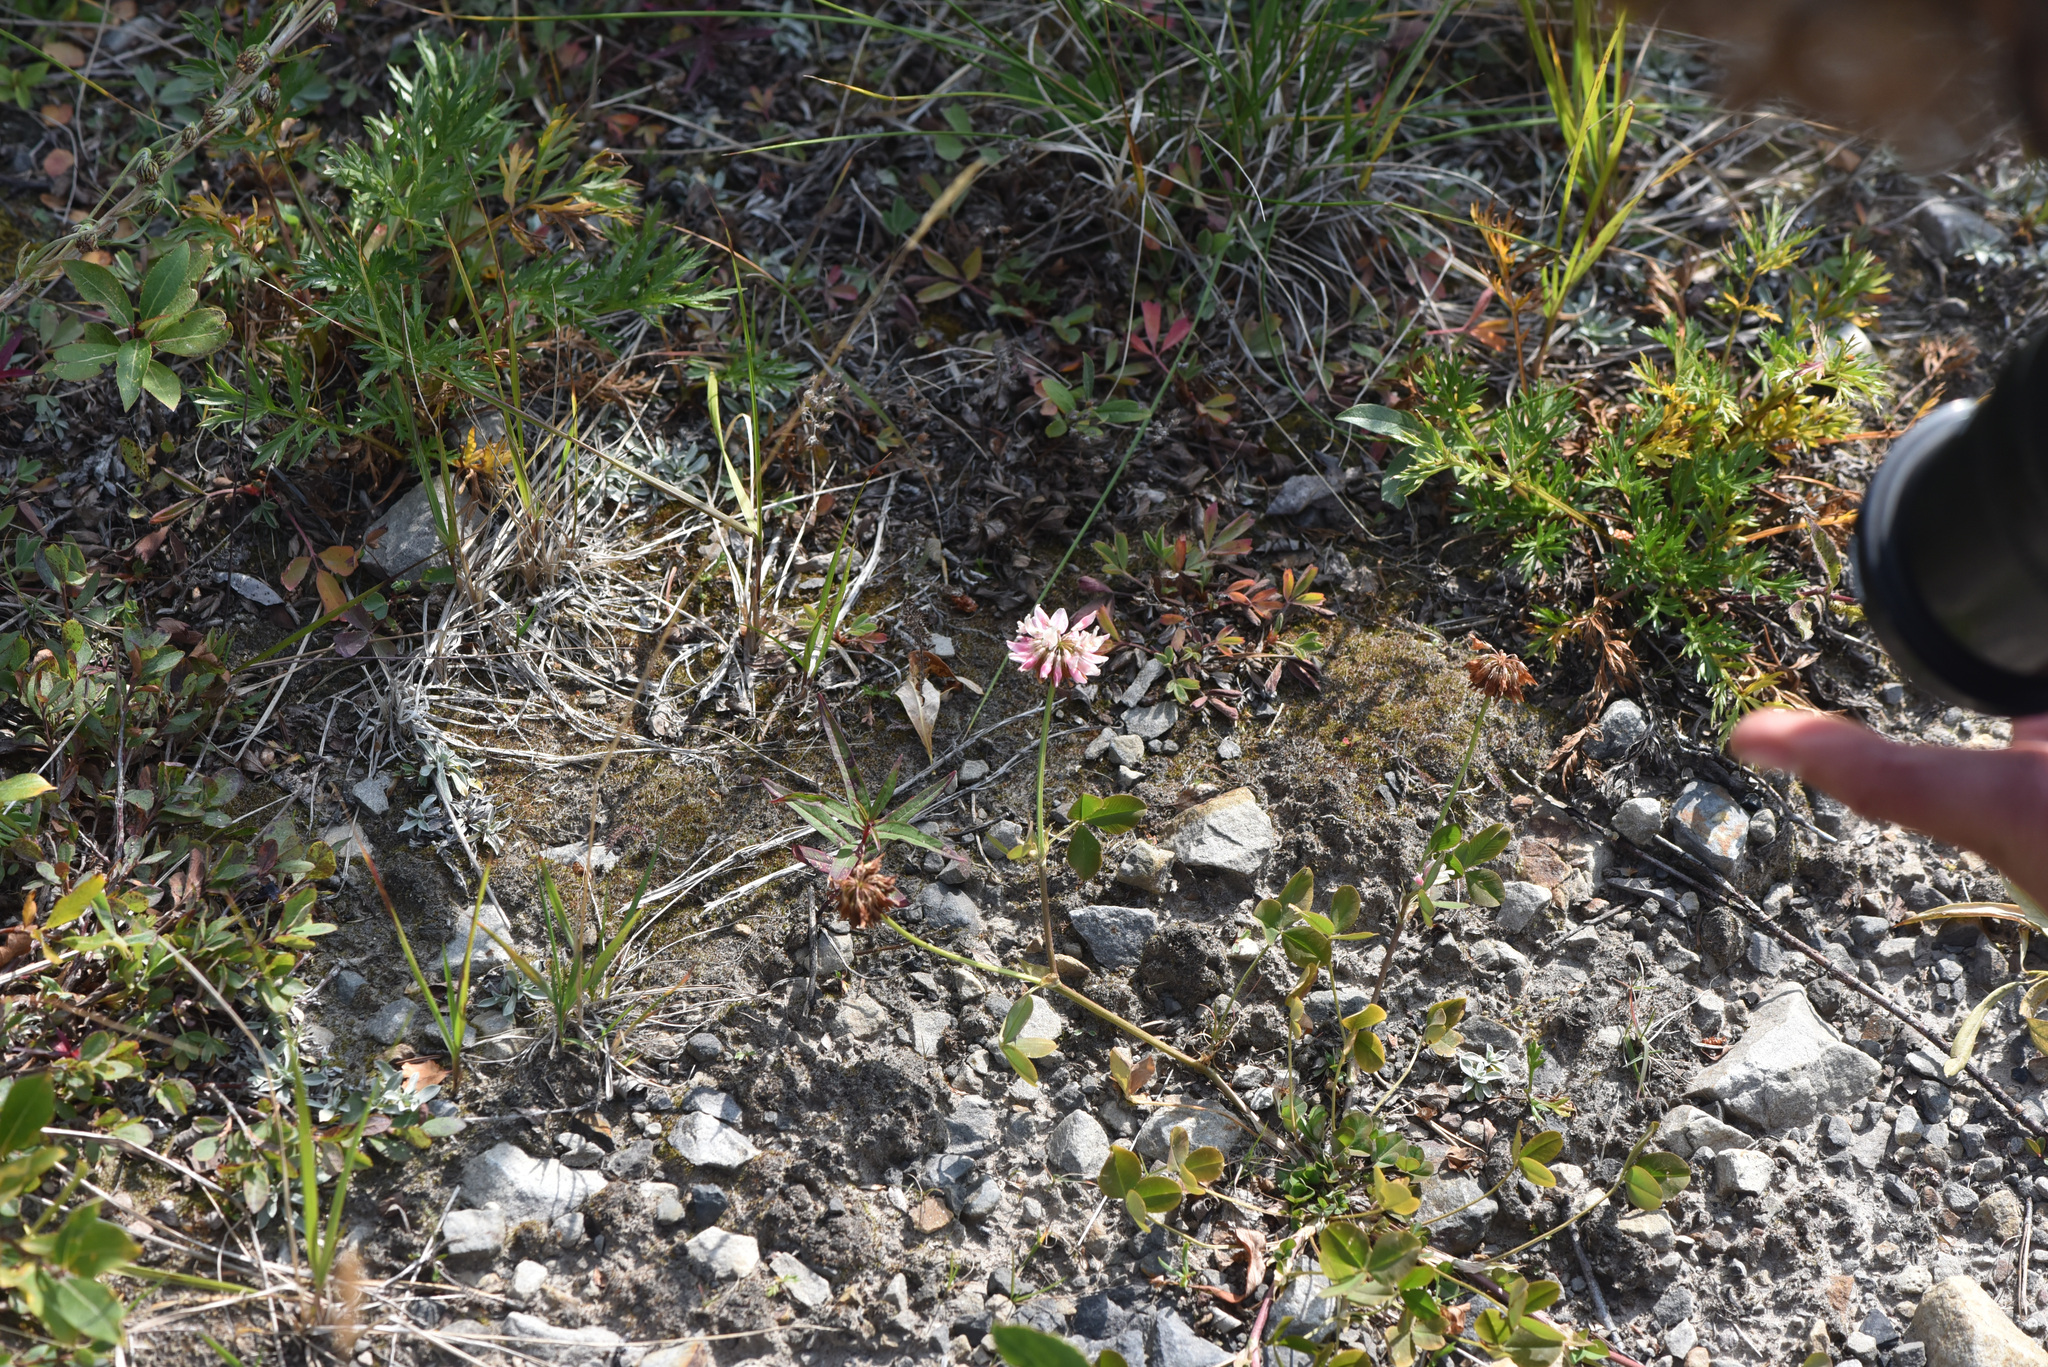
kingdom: Plantae
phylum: Tracheophyta
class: Magnoliopsida
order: Fabales
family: Fabaceae
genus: Trifolium
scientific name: Trifolium hybridum
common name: Alsike clover
